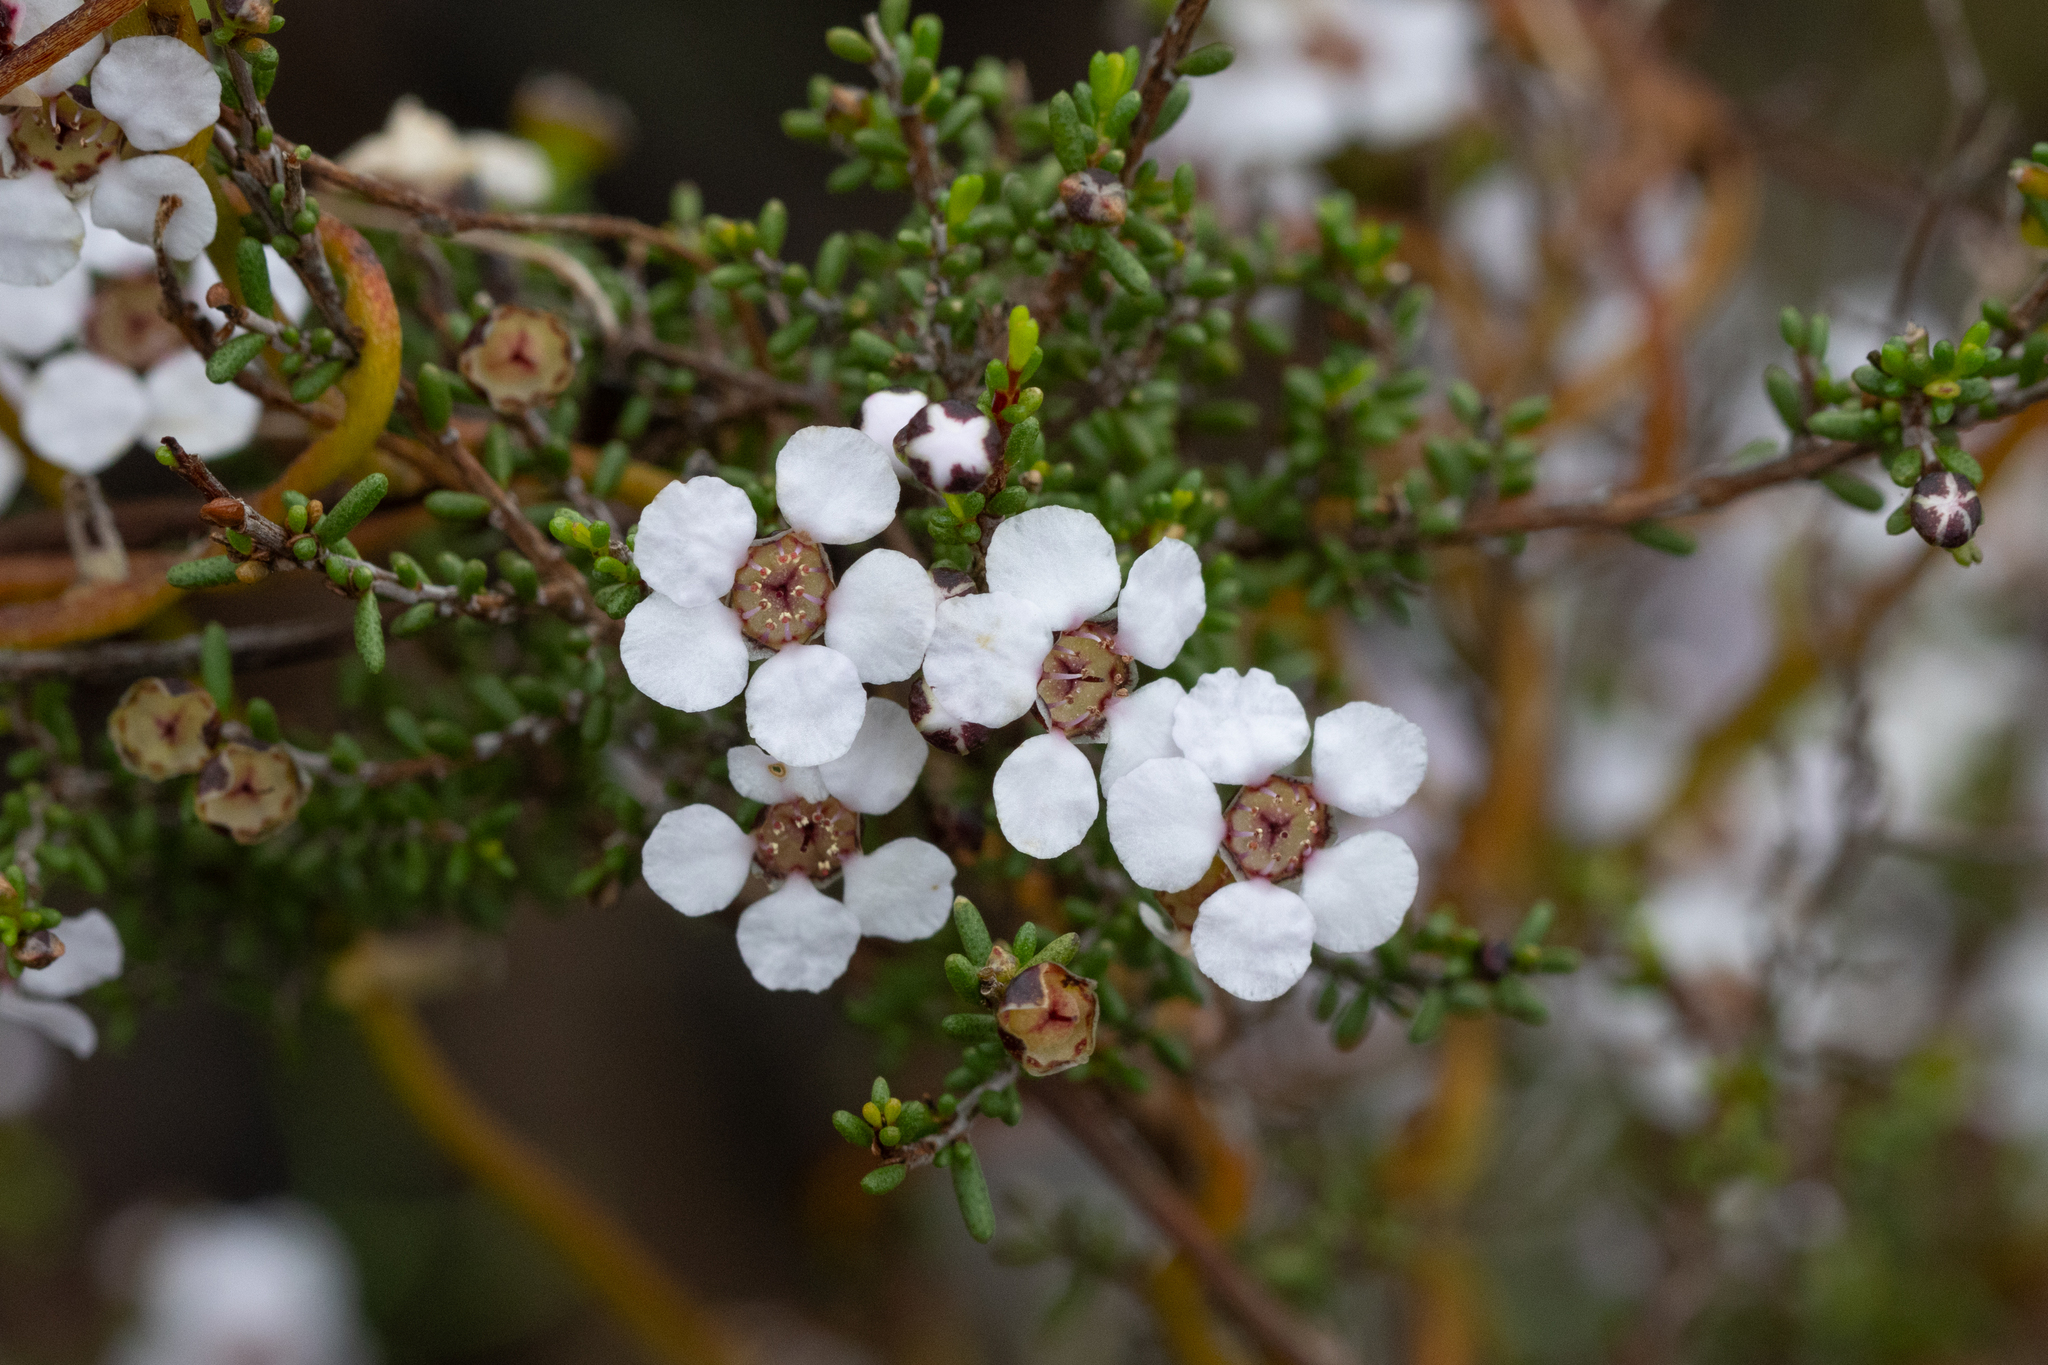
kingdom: Plantae
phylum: Tracheophyta
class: Magnoliopsida
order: Myrtales
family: Myrtaceae
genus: Rinzia
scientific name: Rinzia orientalis
